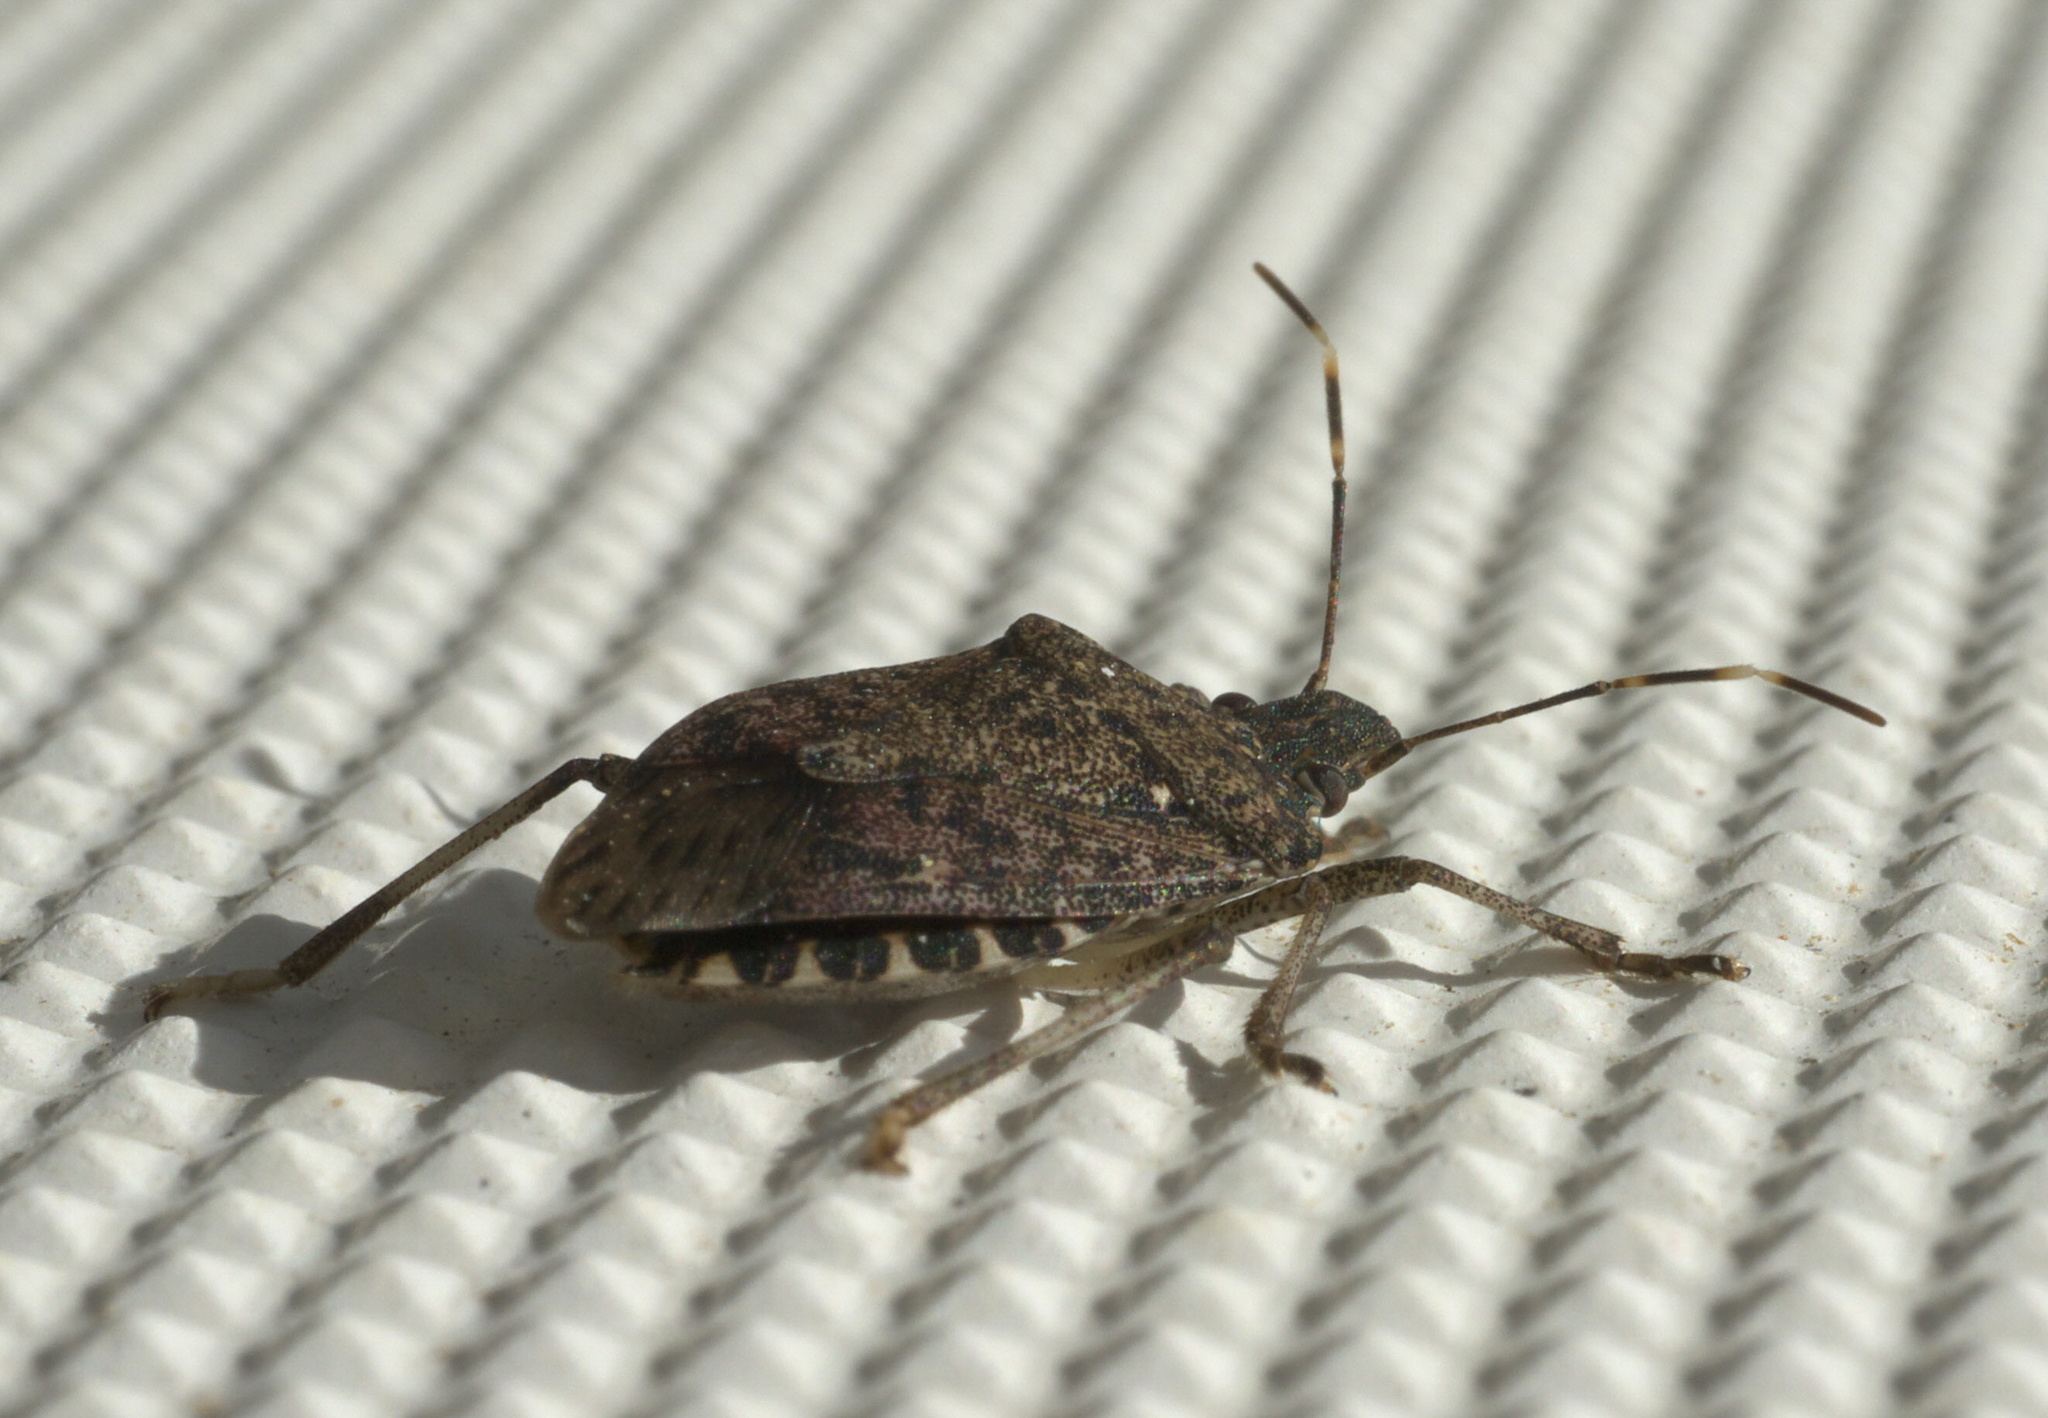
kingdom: Animalia
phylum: Arthropoda
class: Insecta
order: Hemiptera
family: Pentatomidae
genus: Halyomorpha
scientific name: Halyomorpha halys
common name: Brown marmorated stink bug
